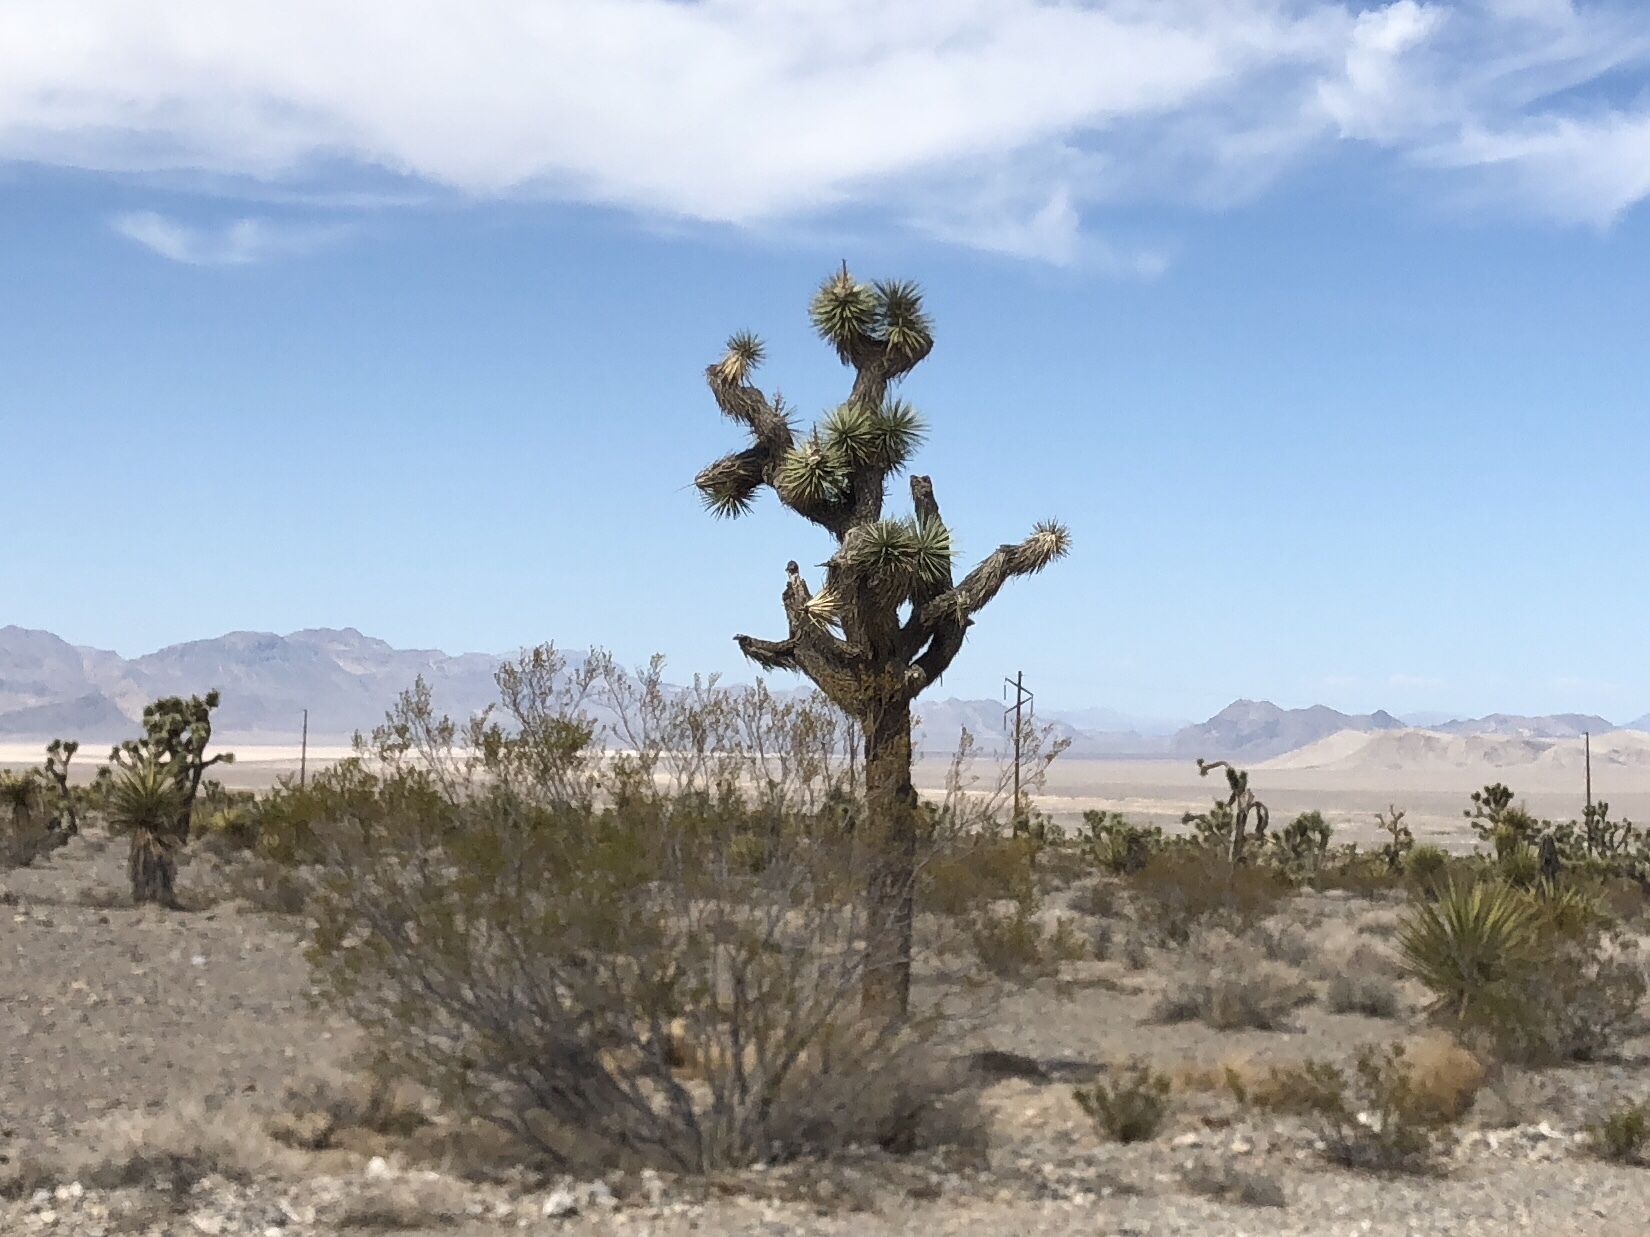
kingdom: Plantae
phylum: Tracheophyta
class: Liliopsida
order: Asparagales
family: Asparagaceae
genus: Yucca
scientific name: Yucca brevifolia
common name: Joshua tree
